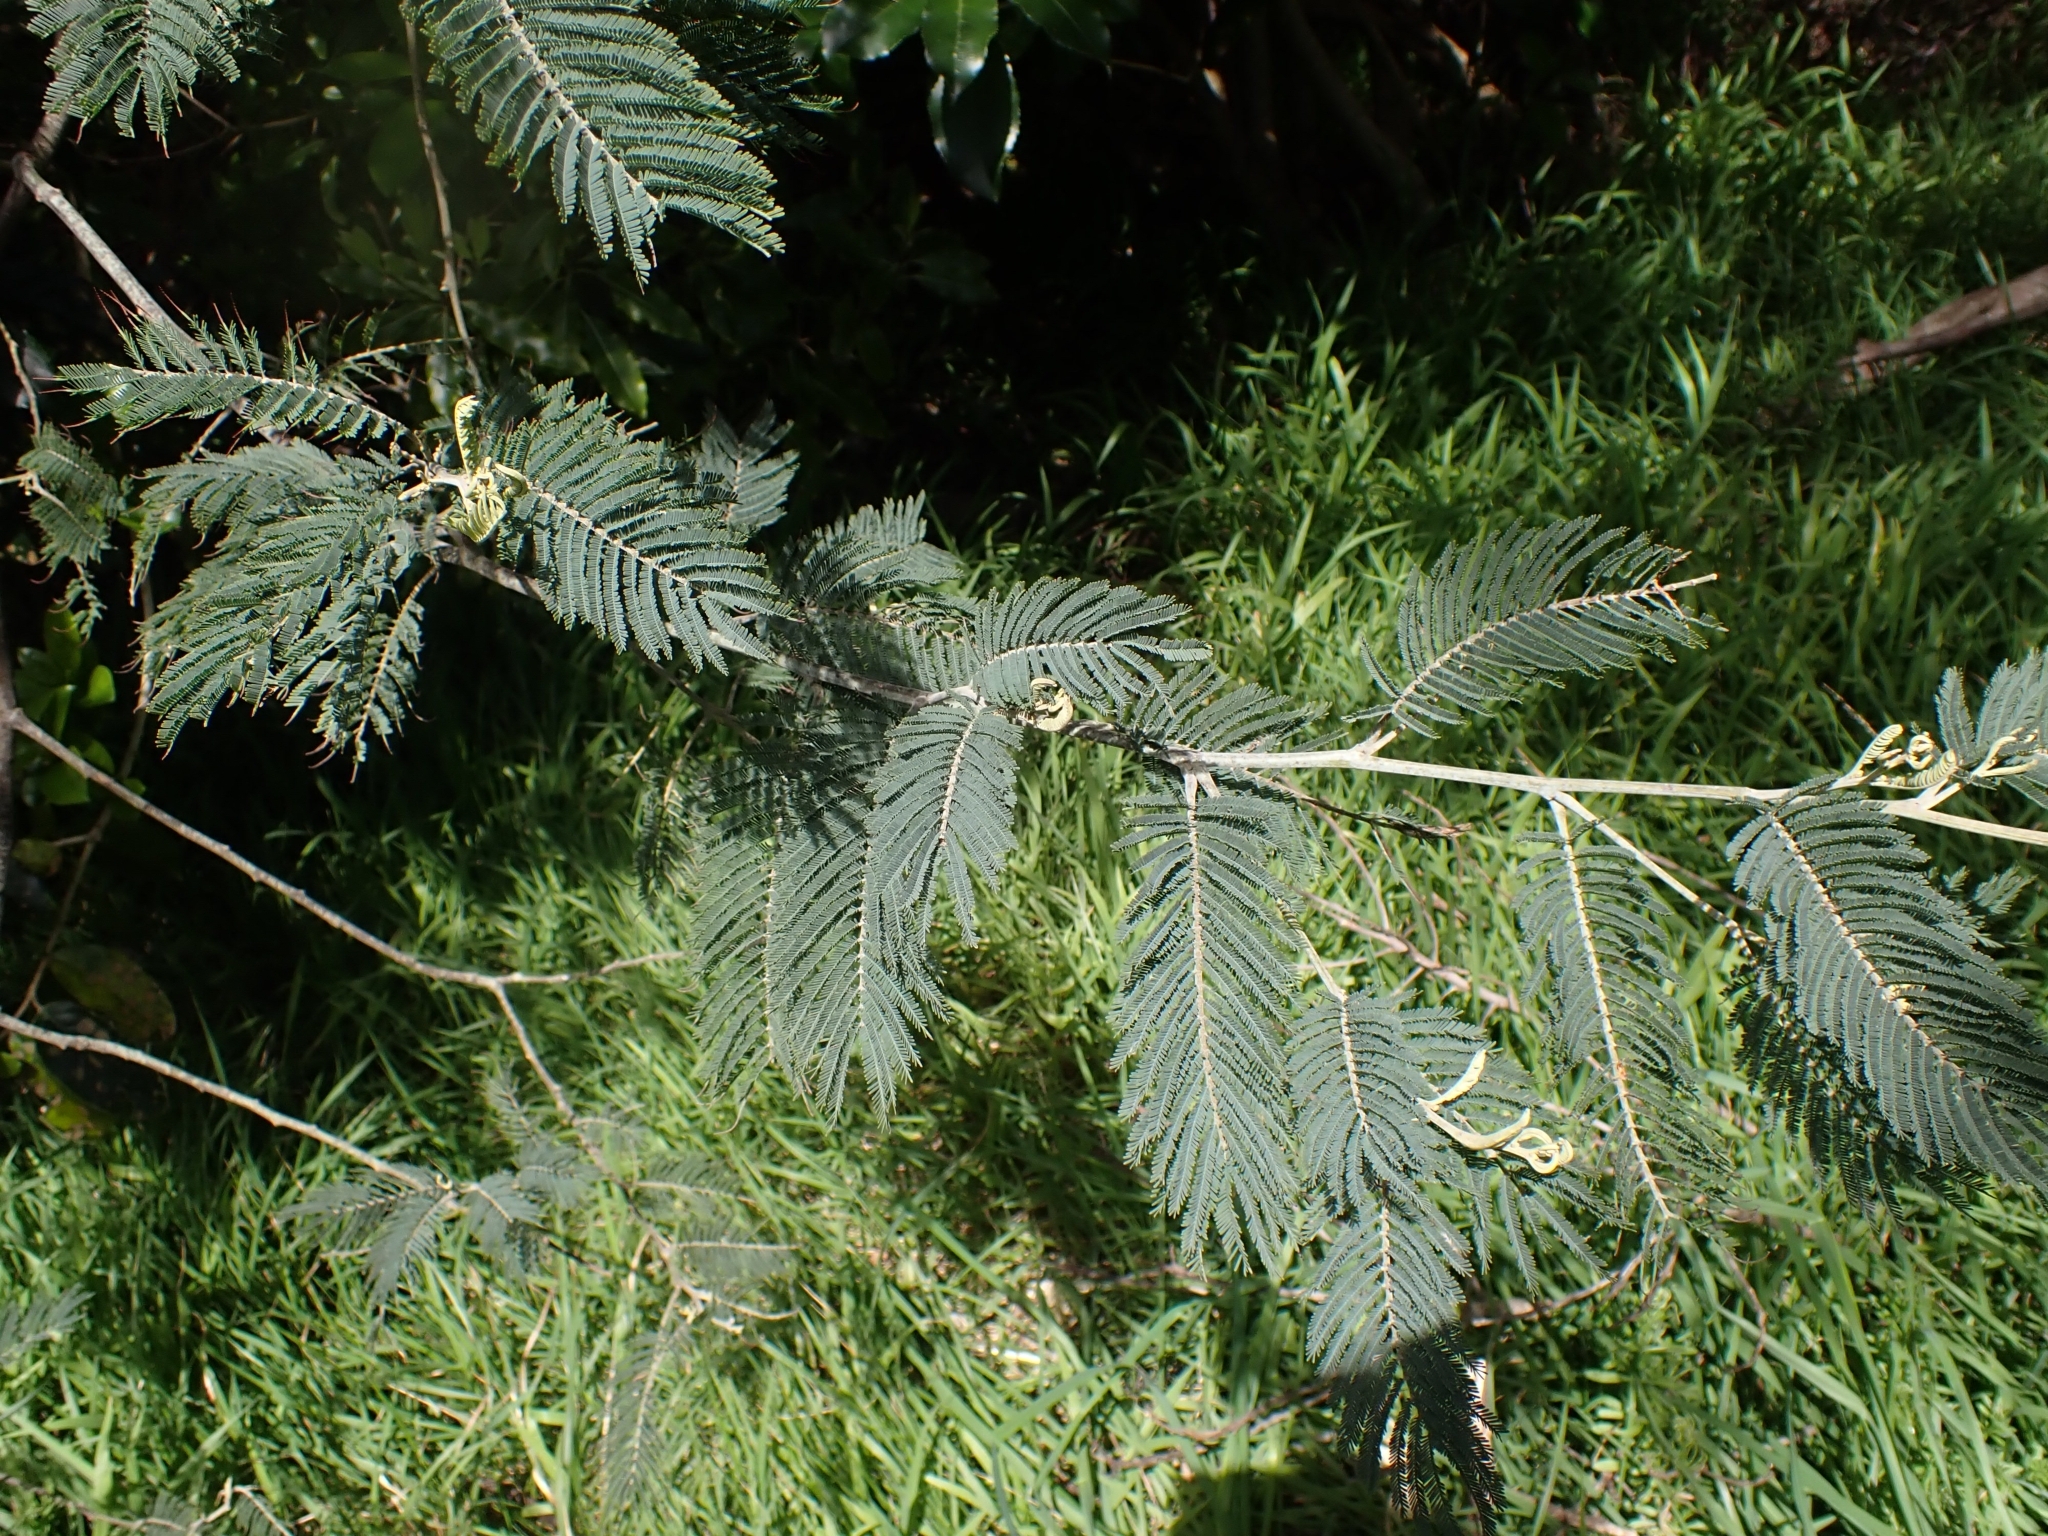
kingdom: Plantae
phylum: Tracheophyta
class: Magnoliopsida
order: Fabales
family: Fabaceae
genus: Acacia
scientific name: Acacia dealbata
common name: Silver wattle
